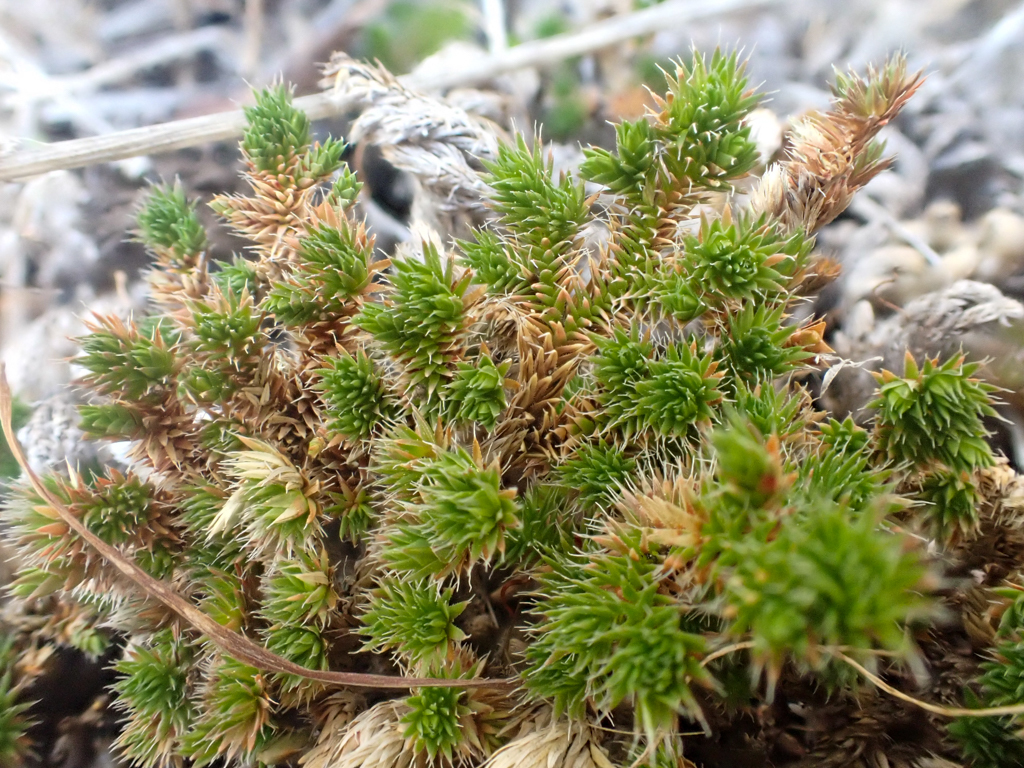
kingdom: Plantae
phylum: Tracheophyta
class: Lycopodiopsida
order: Selaginellales
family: Selaginellaceae
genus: Selaginella
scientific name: Selaginella hansenii
